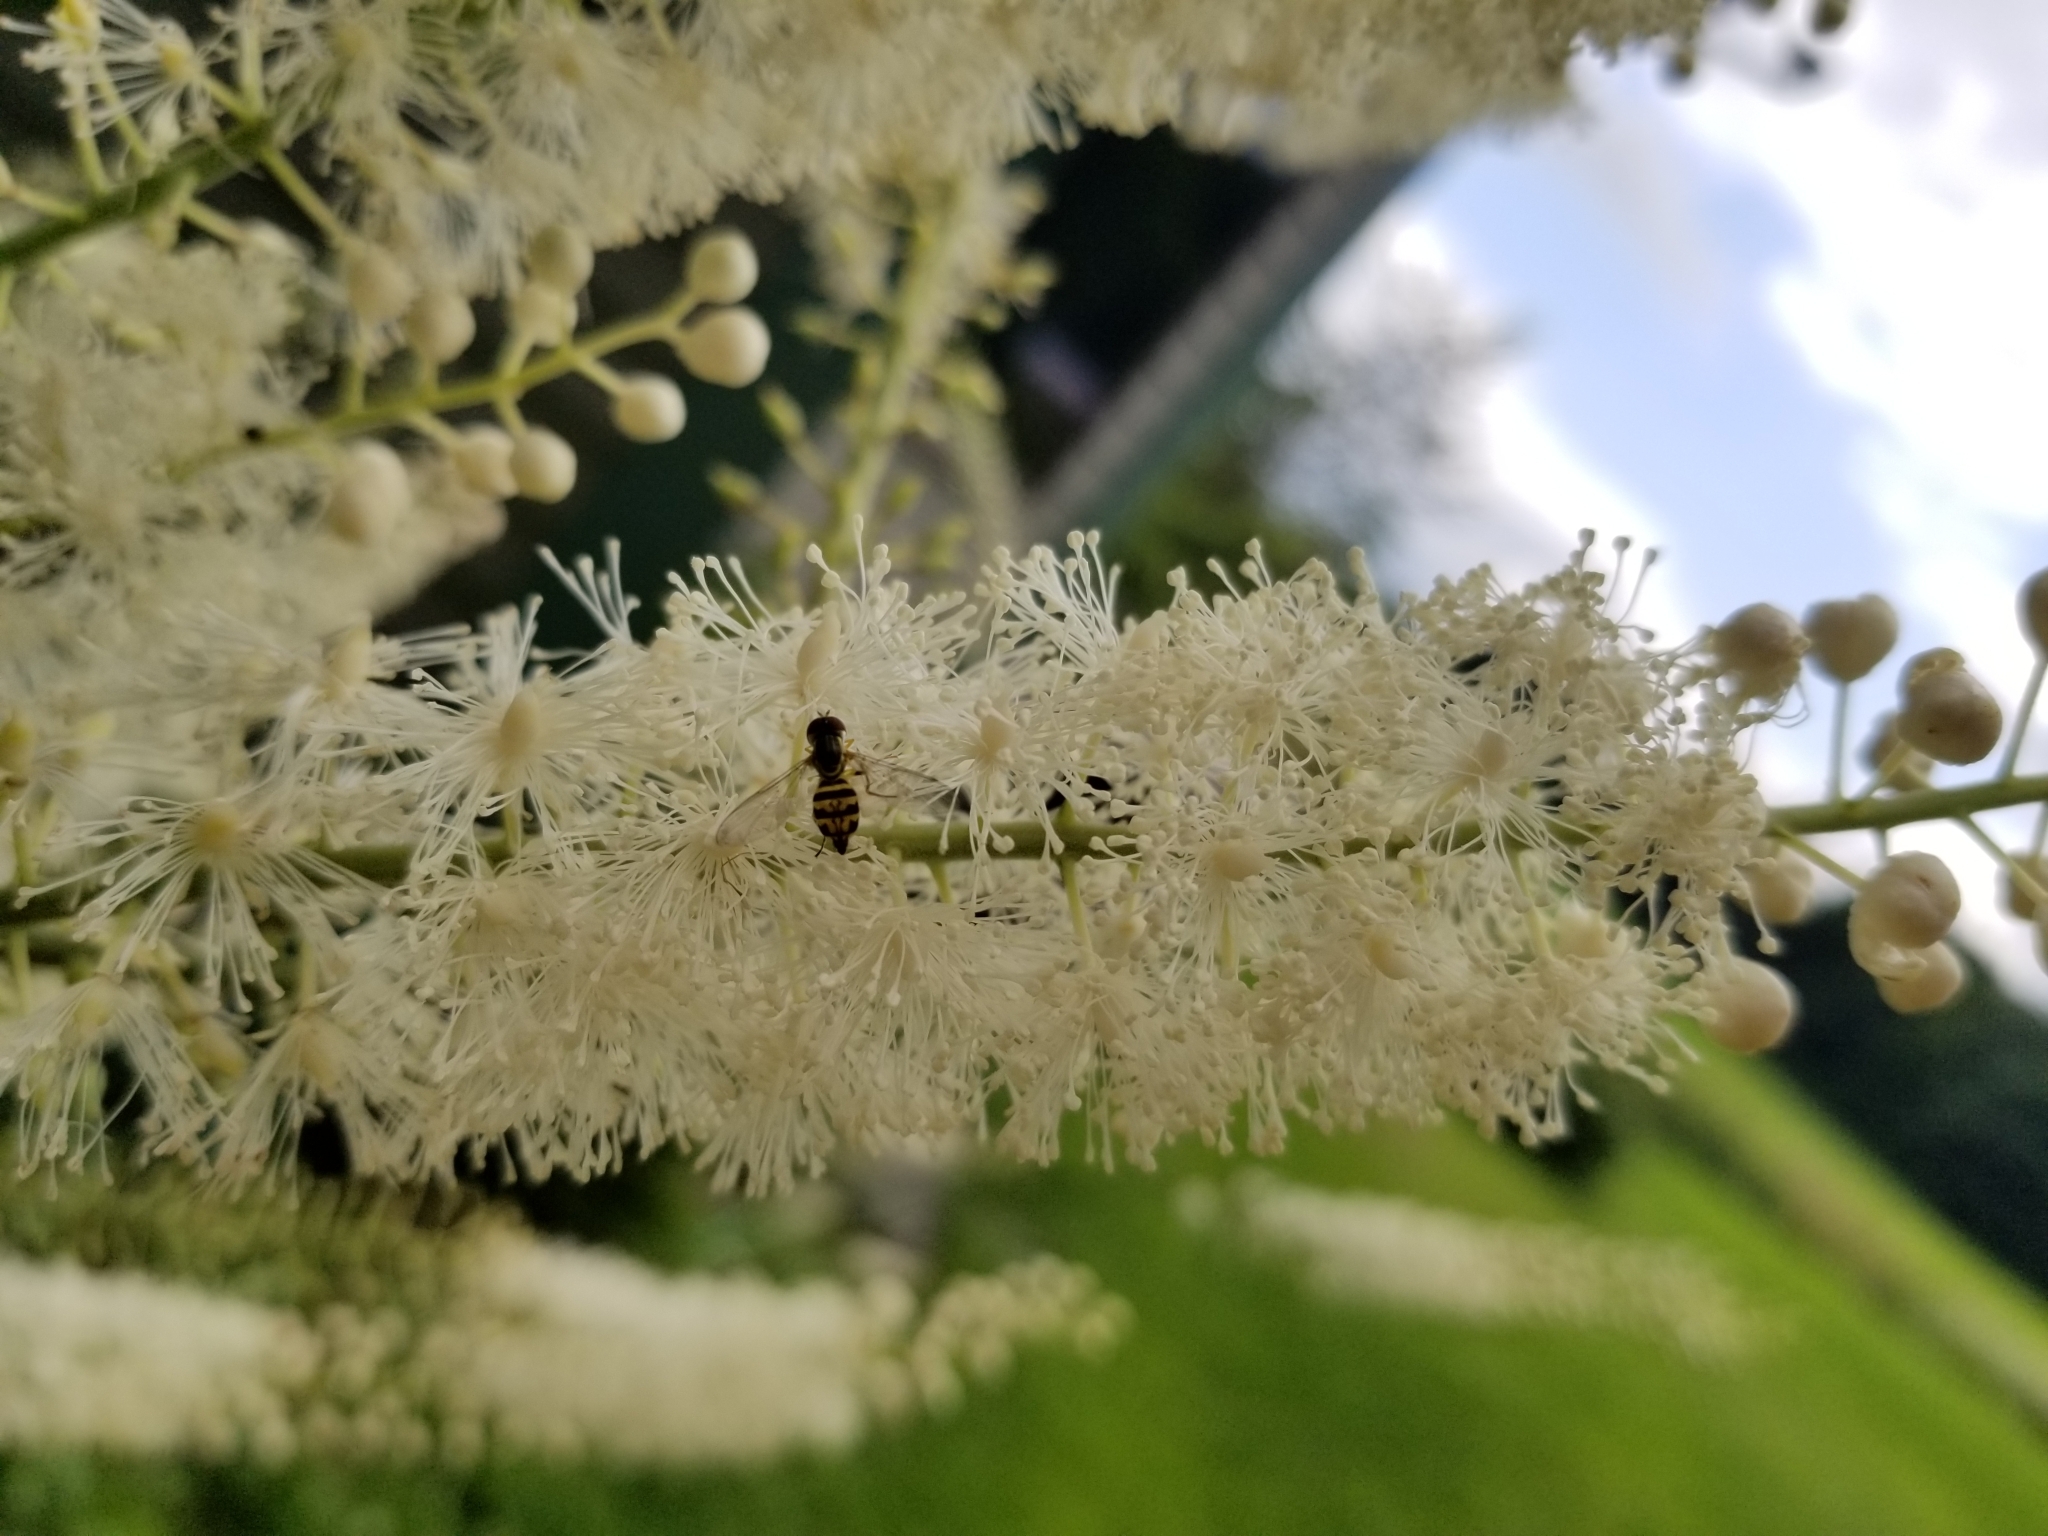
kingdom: Animalia
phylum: Arthropoda
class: Insecta
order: Diptera
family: Syrphidae
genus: Toxomerus
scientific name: Toxomerus geminatus
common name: Eastern calligrapher
